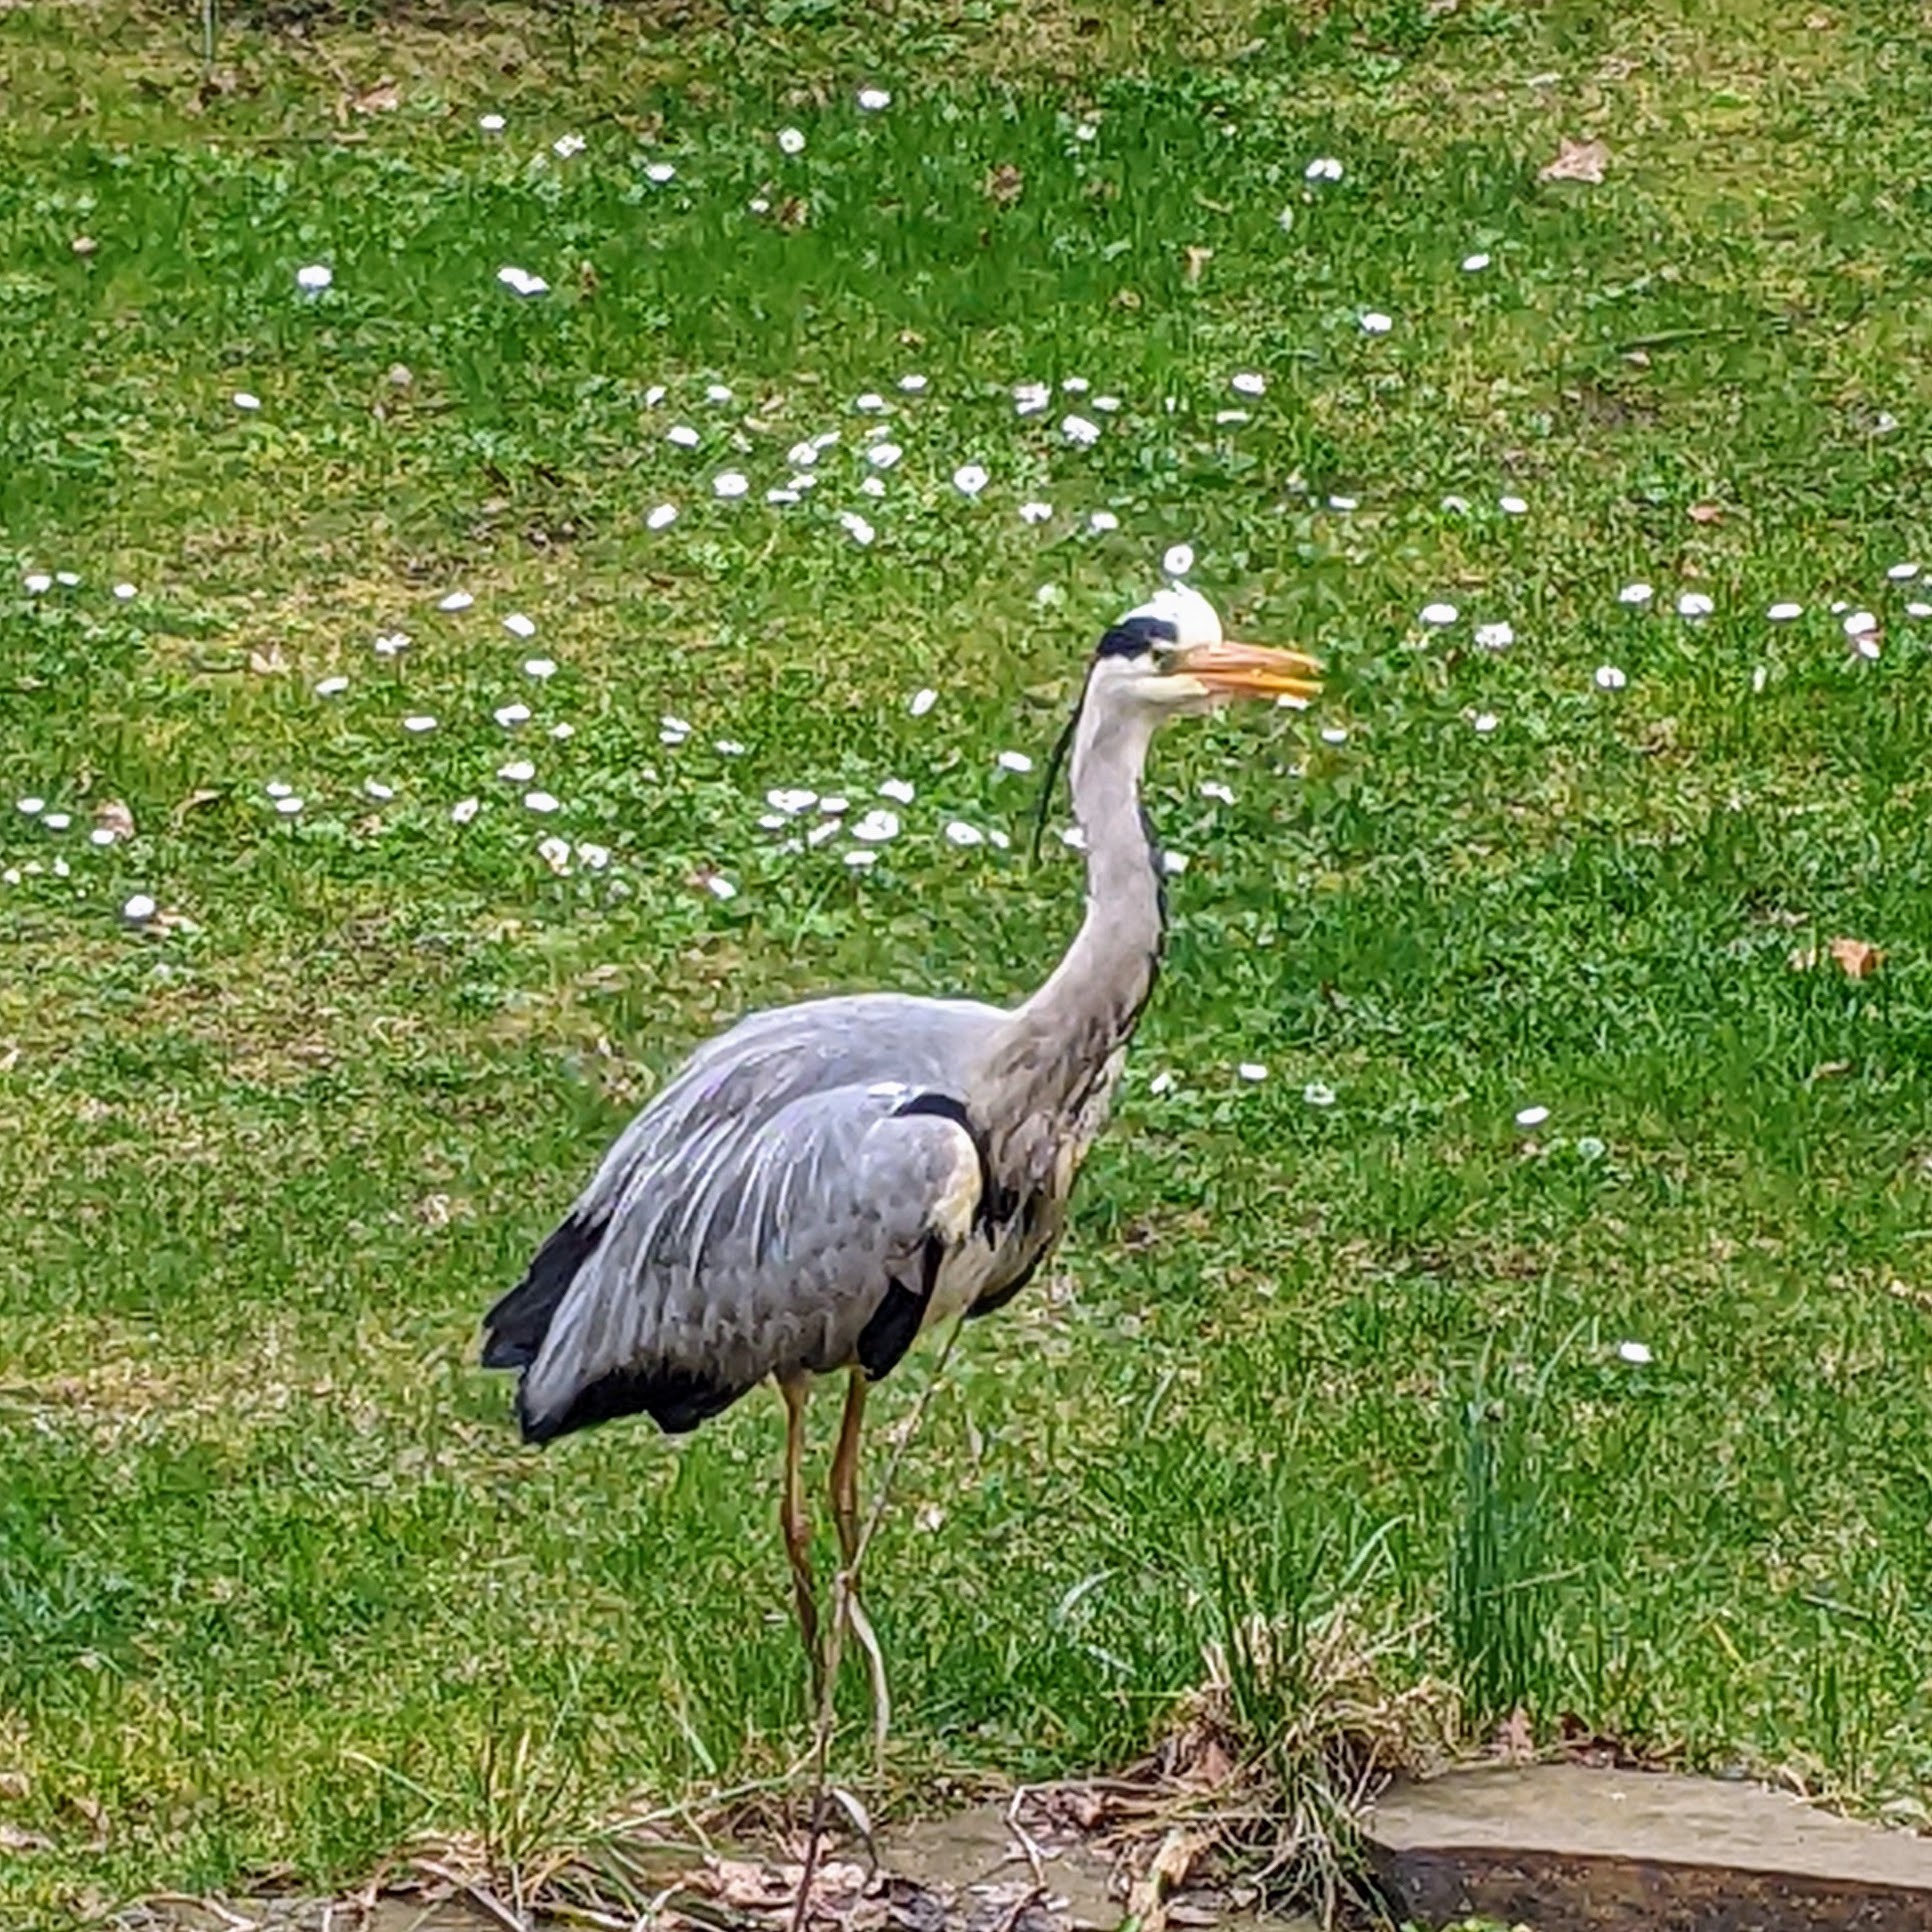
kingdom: Animalia
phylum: Chordata
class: Aves
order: Pelecaniformes
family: Ardeidae
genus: Ardea
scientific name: Ardea cinerea
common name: Grey heron
